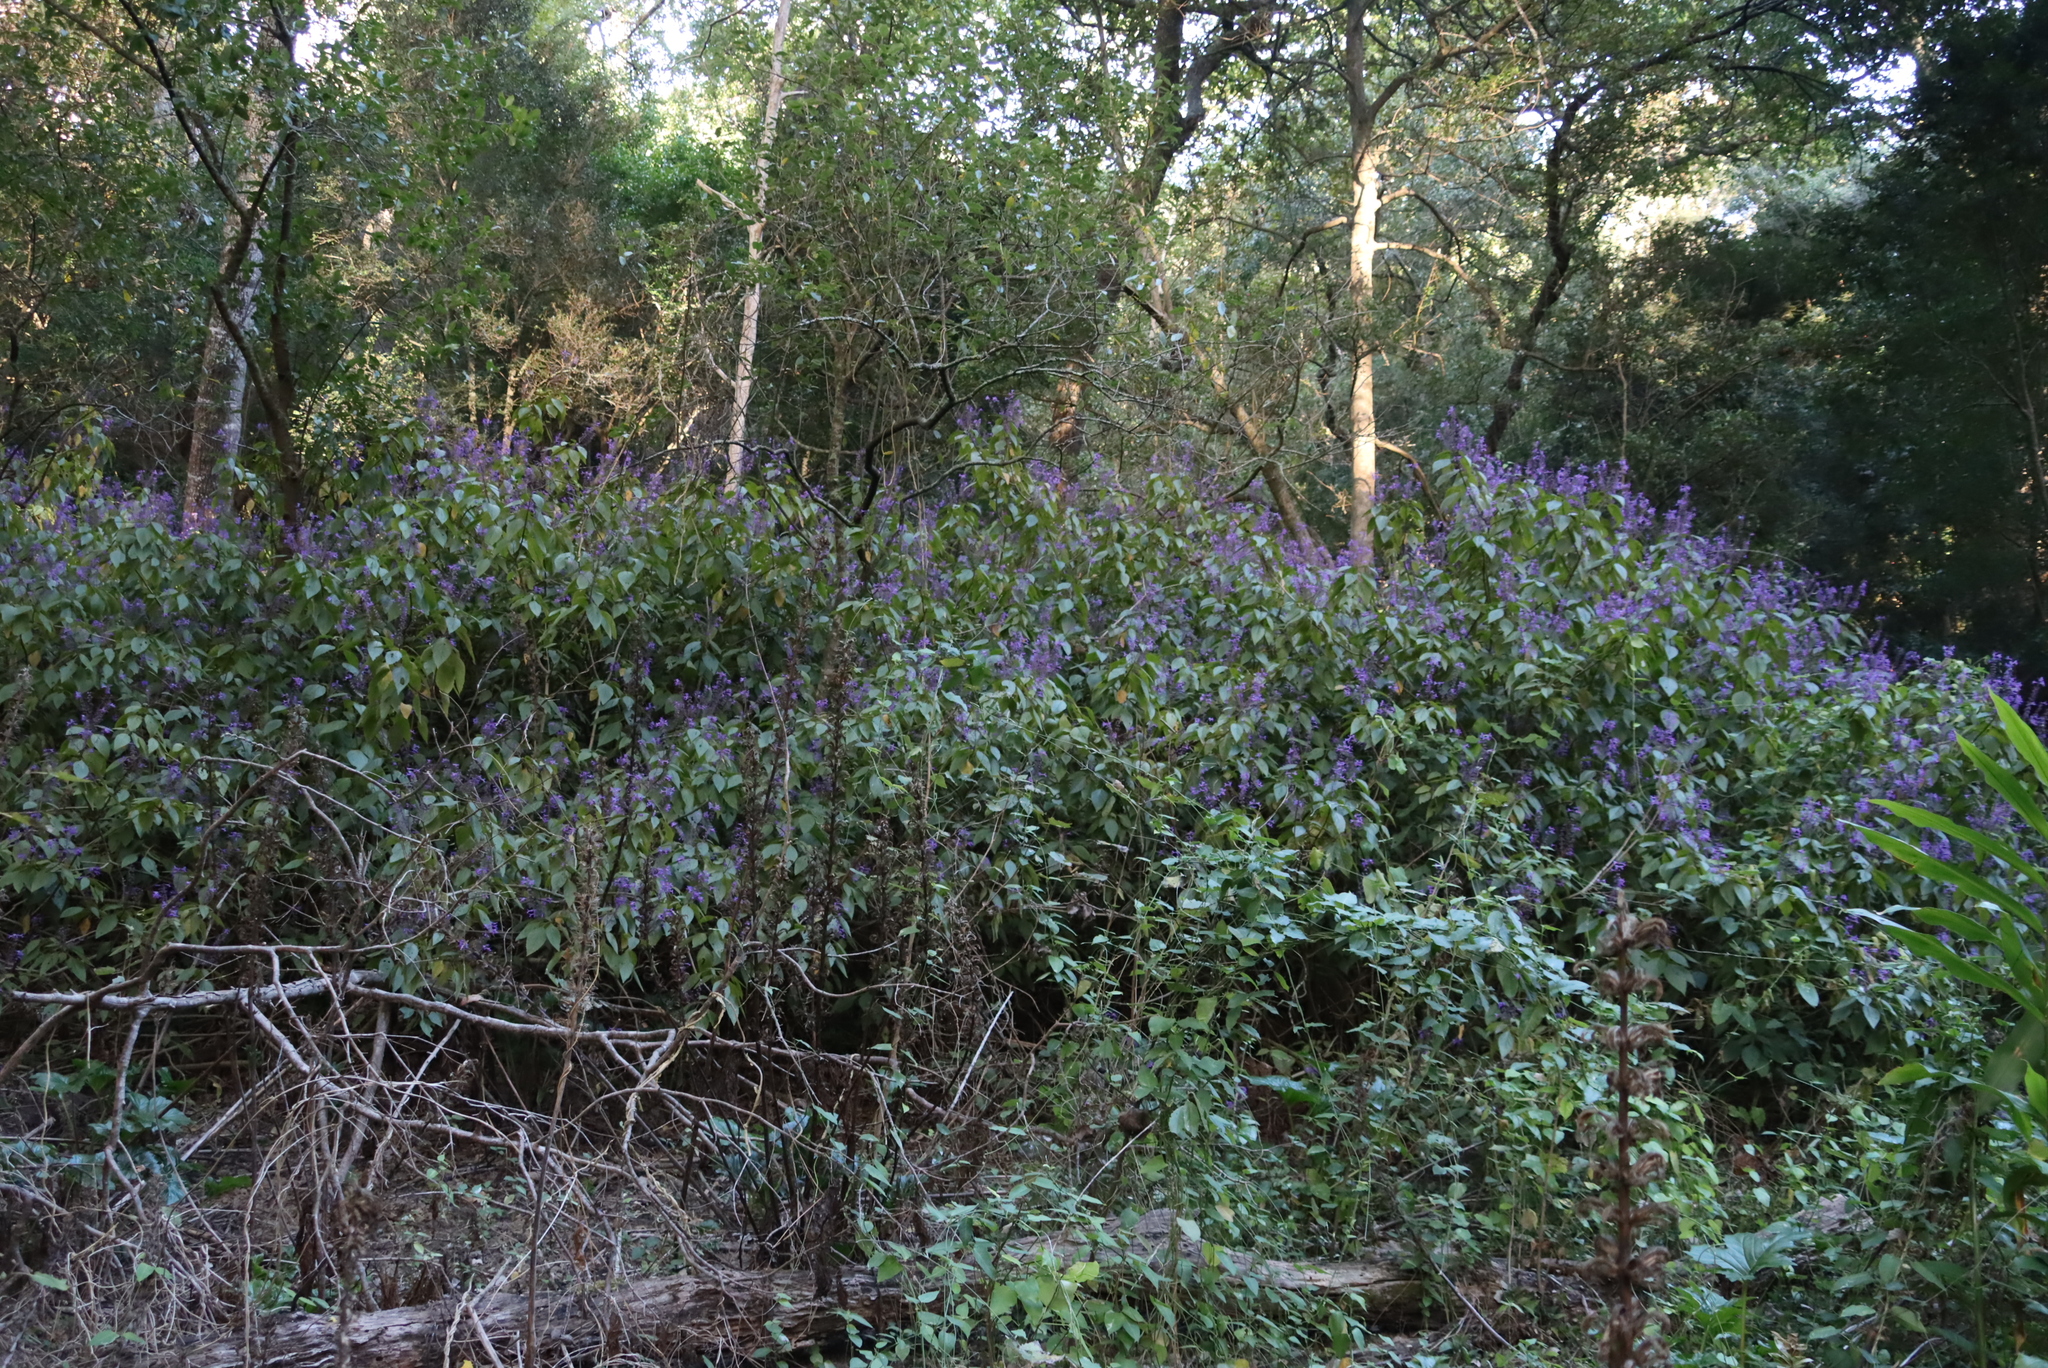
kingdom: Plantae
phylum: Tracheophyta
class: Magnoliopsida
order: Lamiales
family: Lamiaceae
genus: Plectranthus
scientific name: Plectranthus ecklonii
